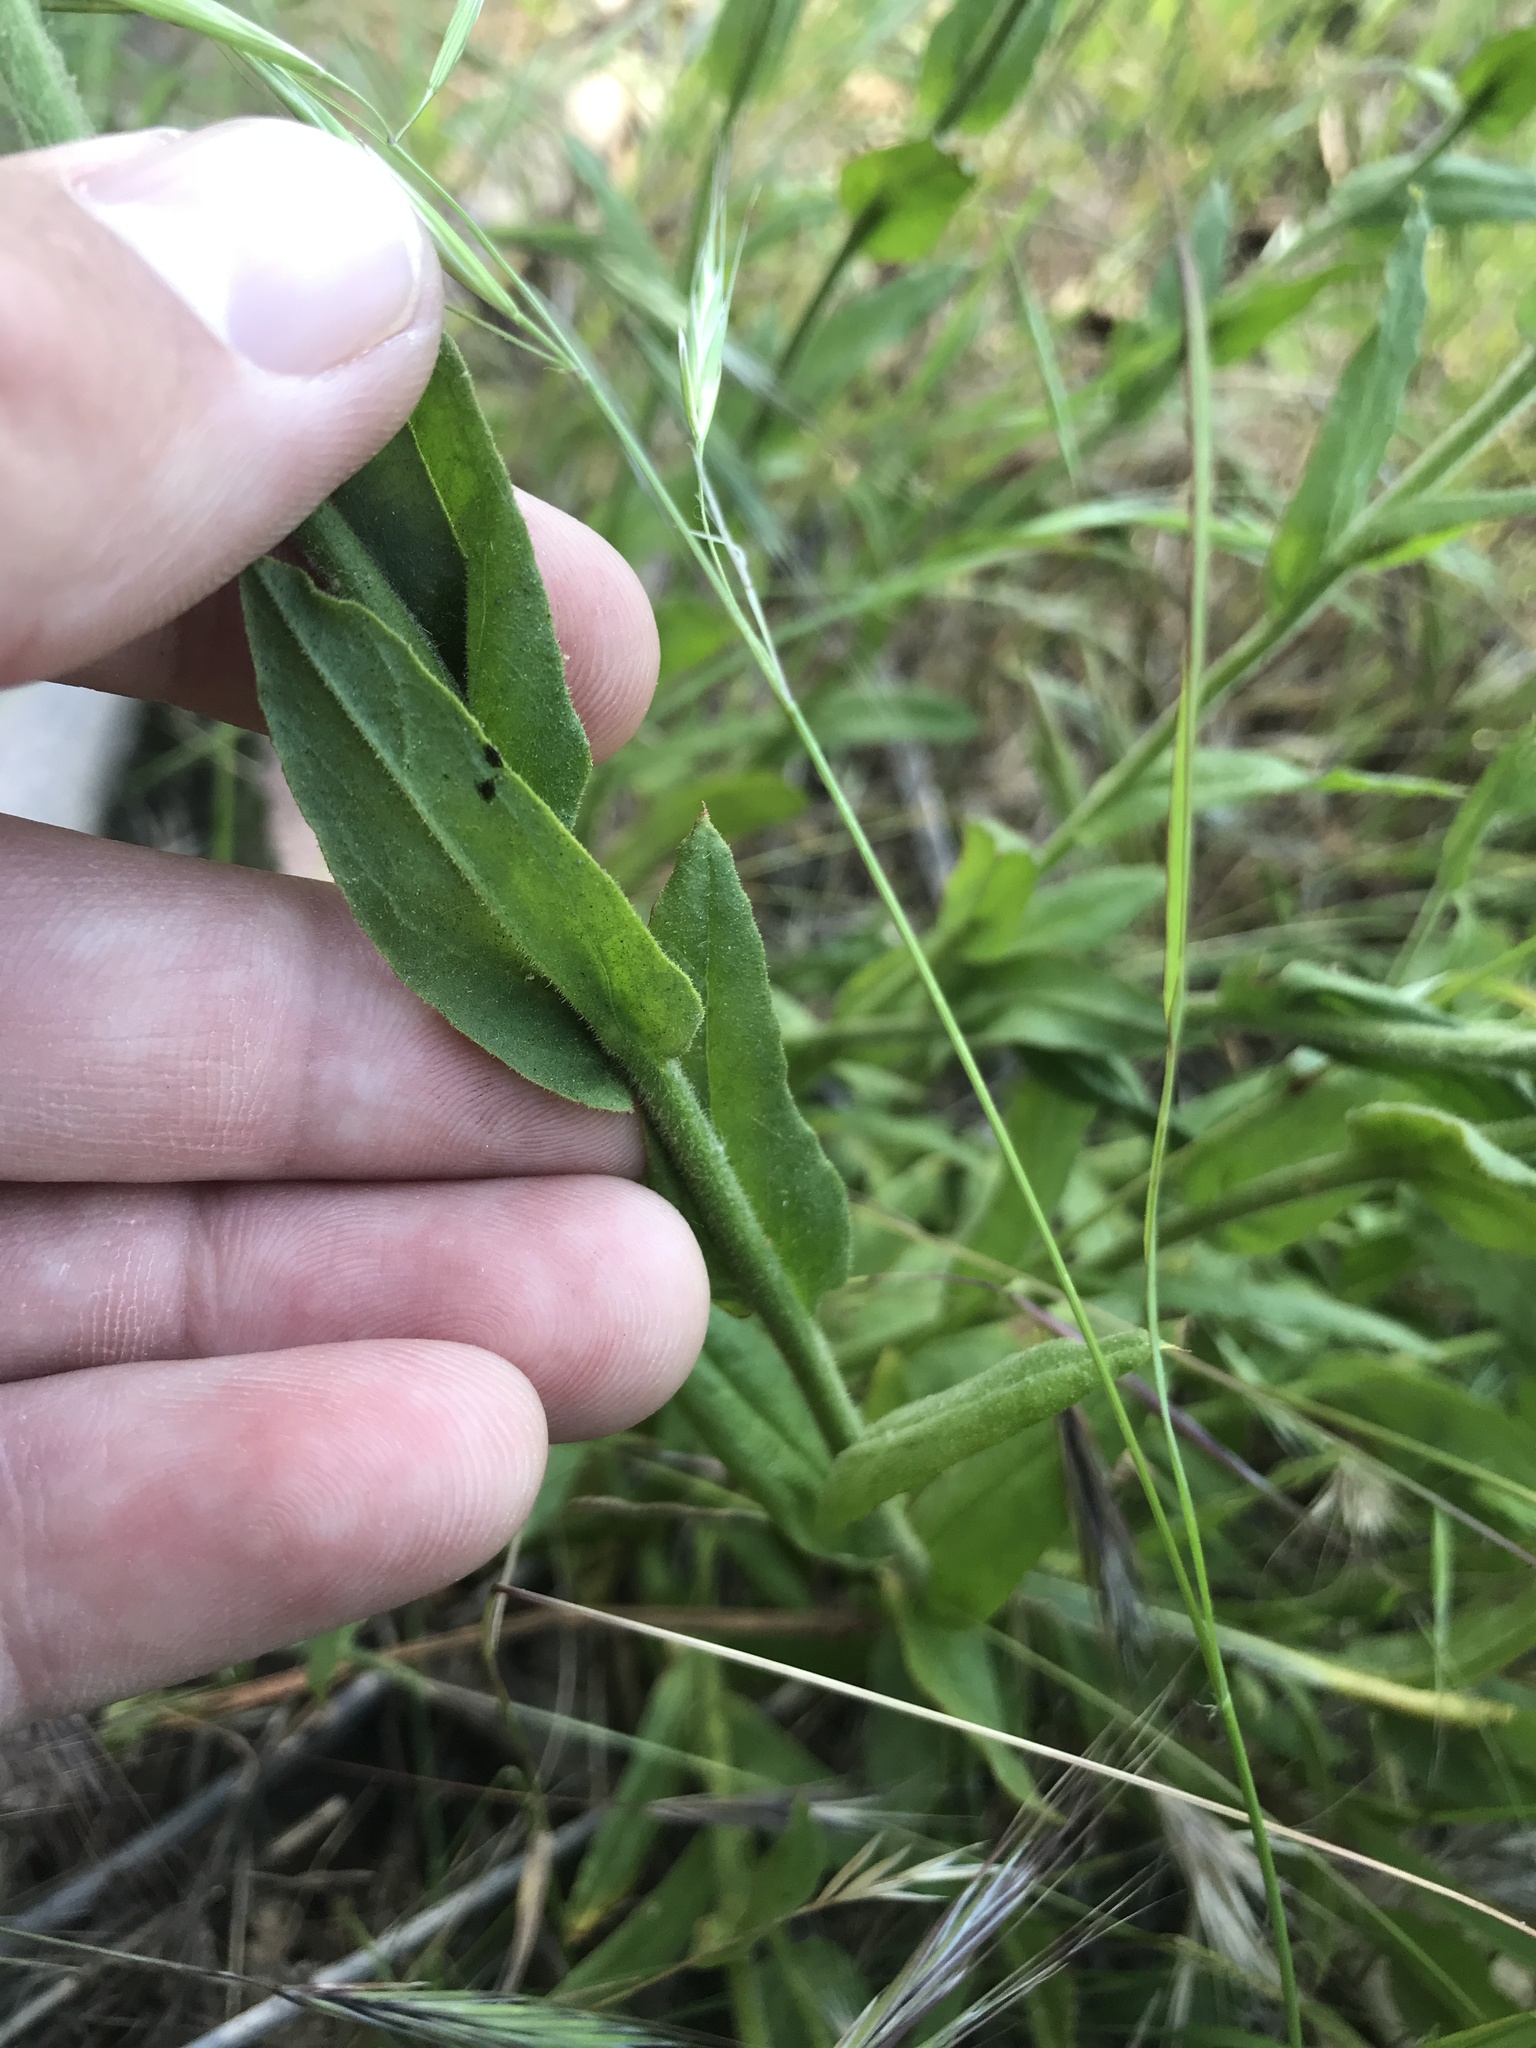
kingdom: Plantae
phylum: Tracheophyta
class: Magnoliopsida
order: Asterales
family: Asteraceae
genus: Pseudognaphalium
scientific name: Pseudognaphalium californicum
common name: California rabbit-tobacco
